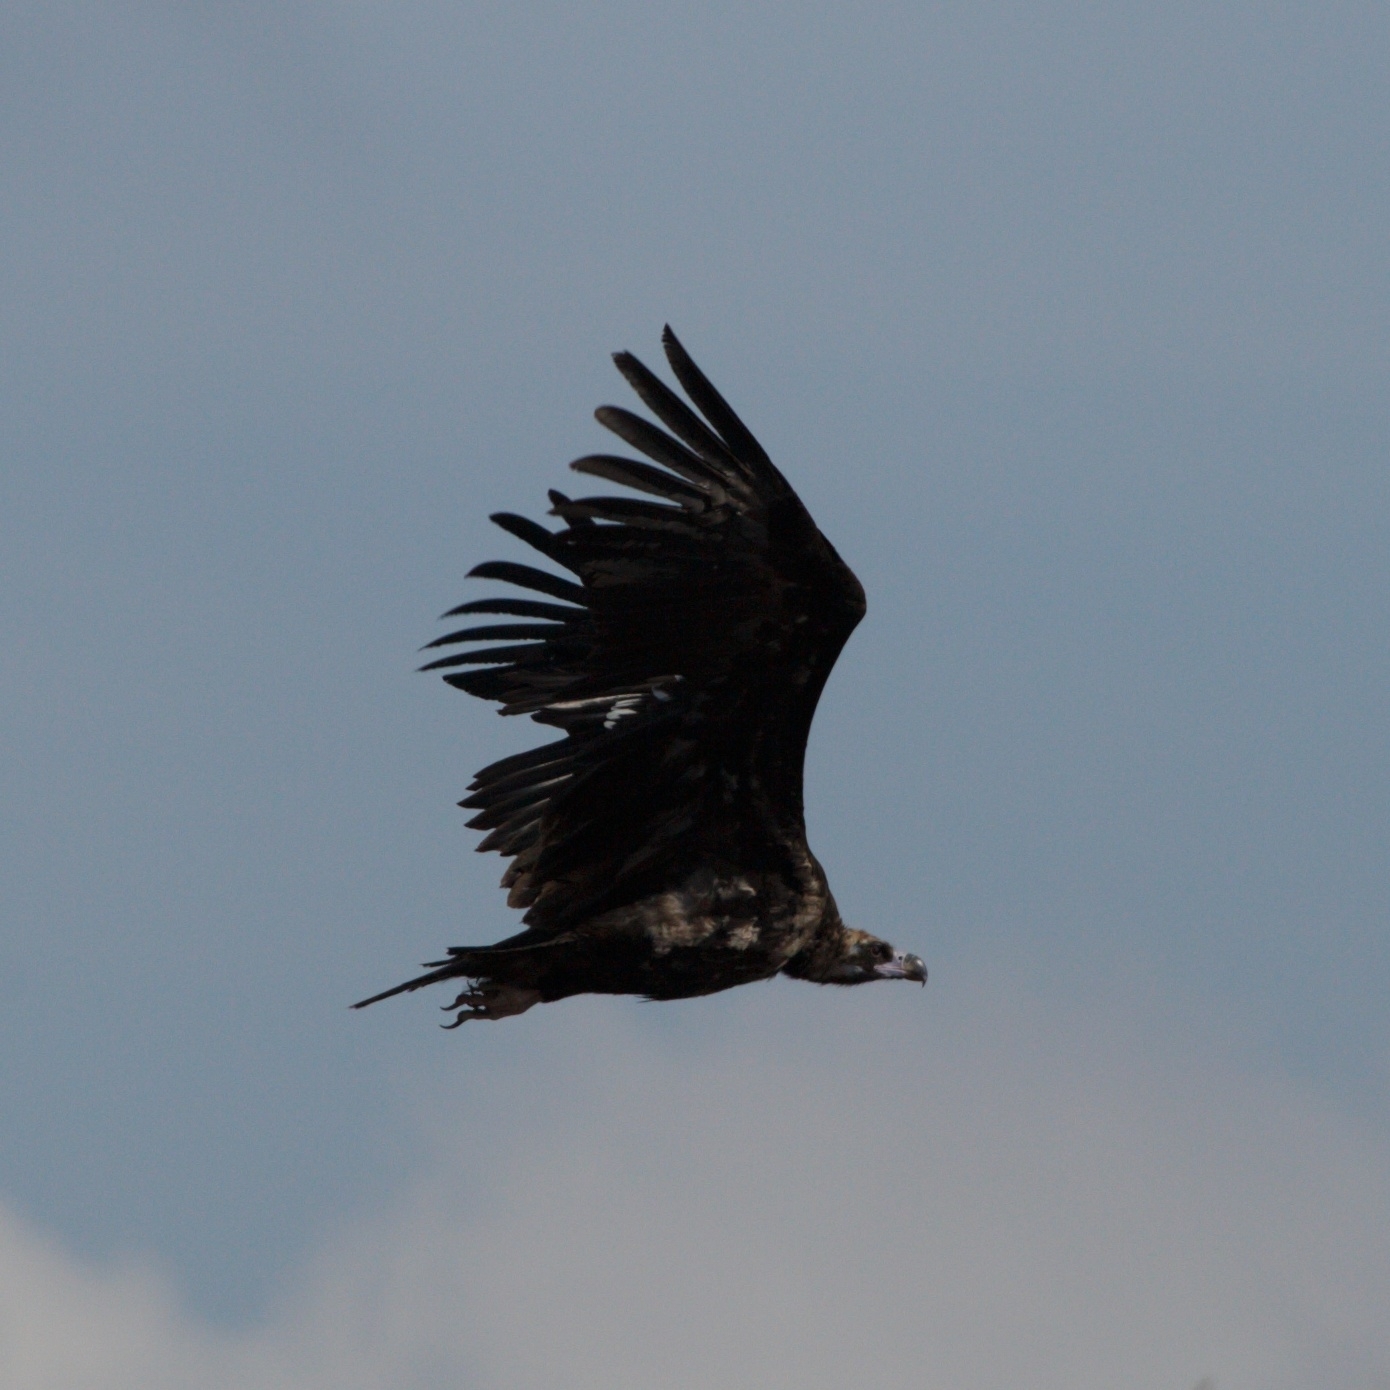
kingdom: Animalia
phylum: Chordata
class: Aves
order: Accipitriformes
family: Accipitridae
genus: Aegypius
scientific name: Aegypius monachus
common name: Cinereous vulture
